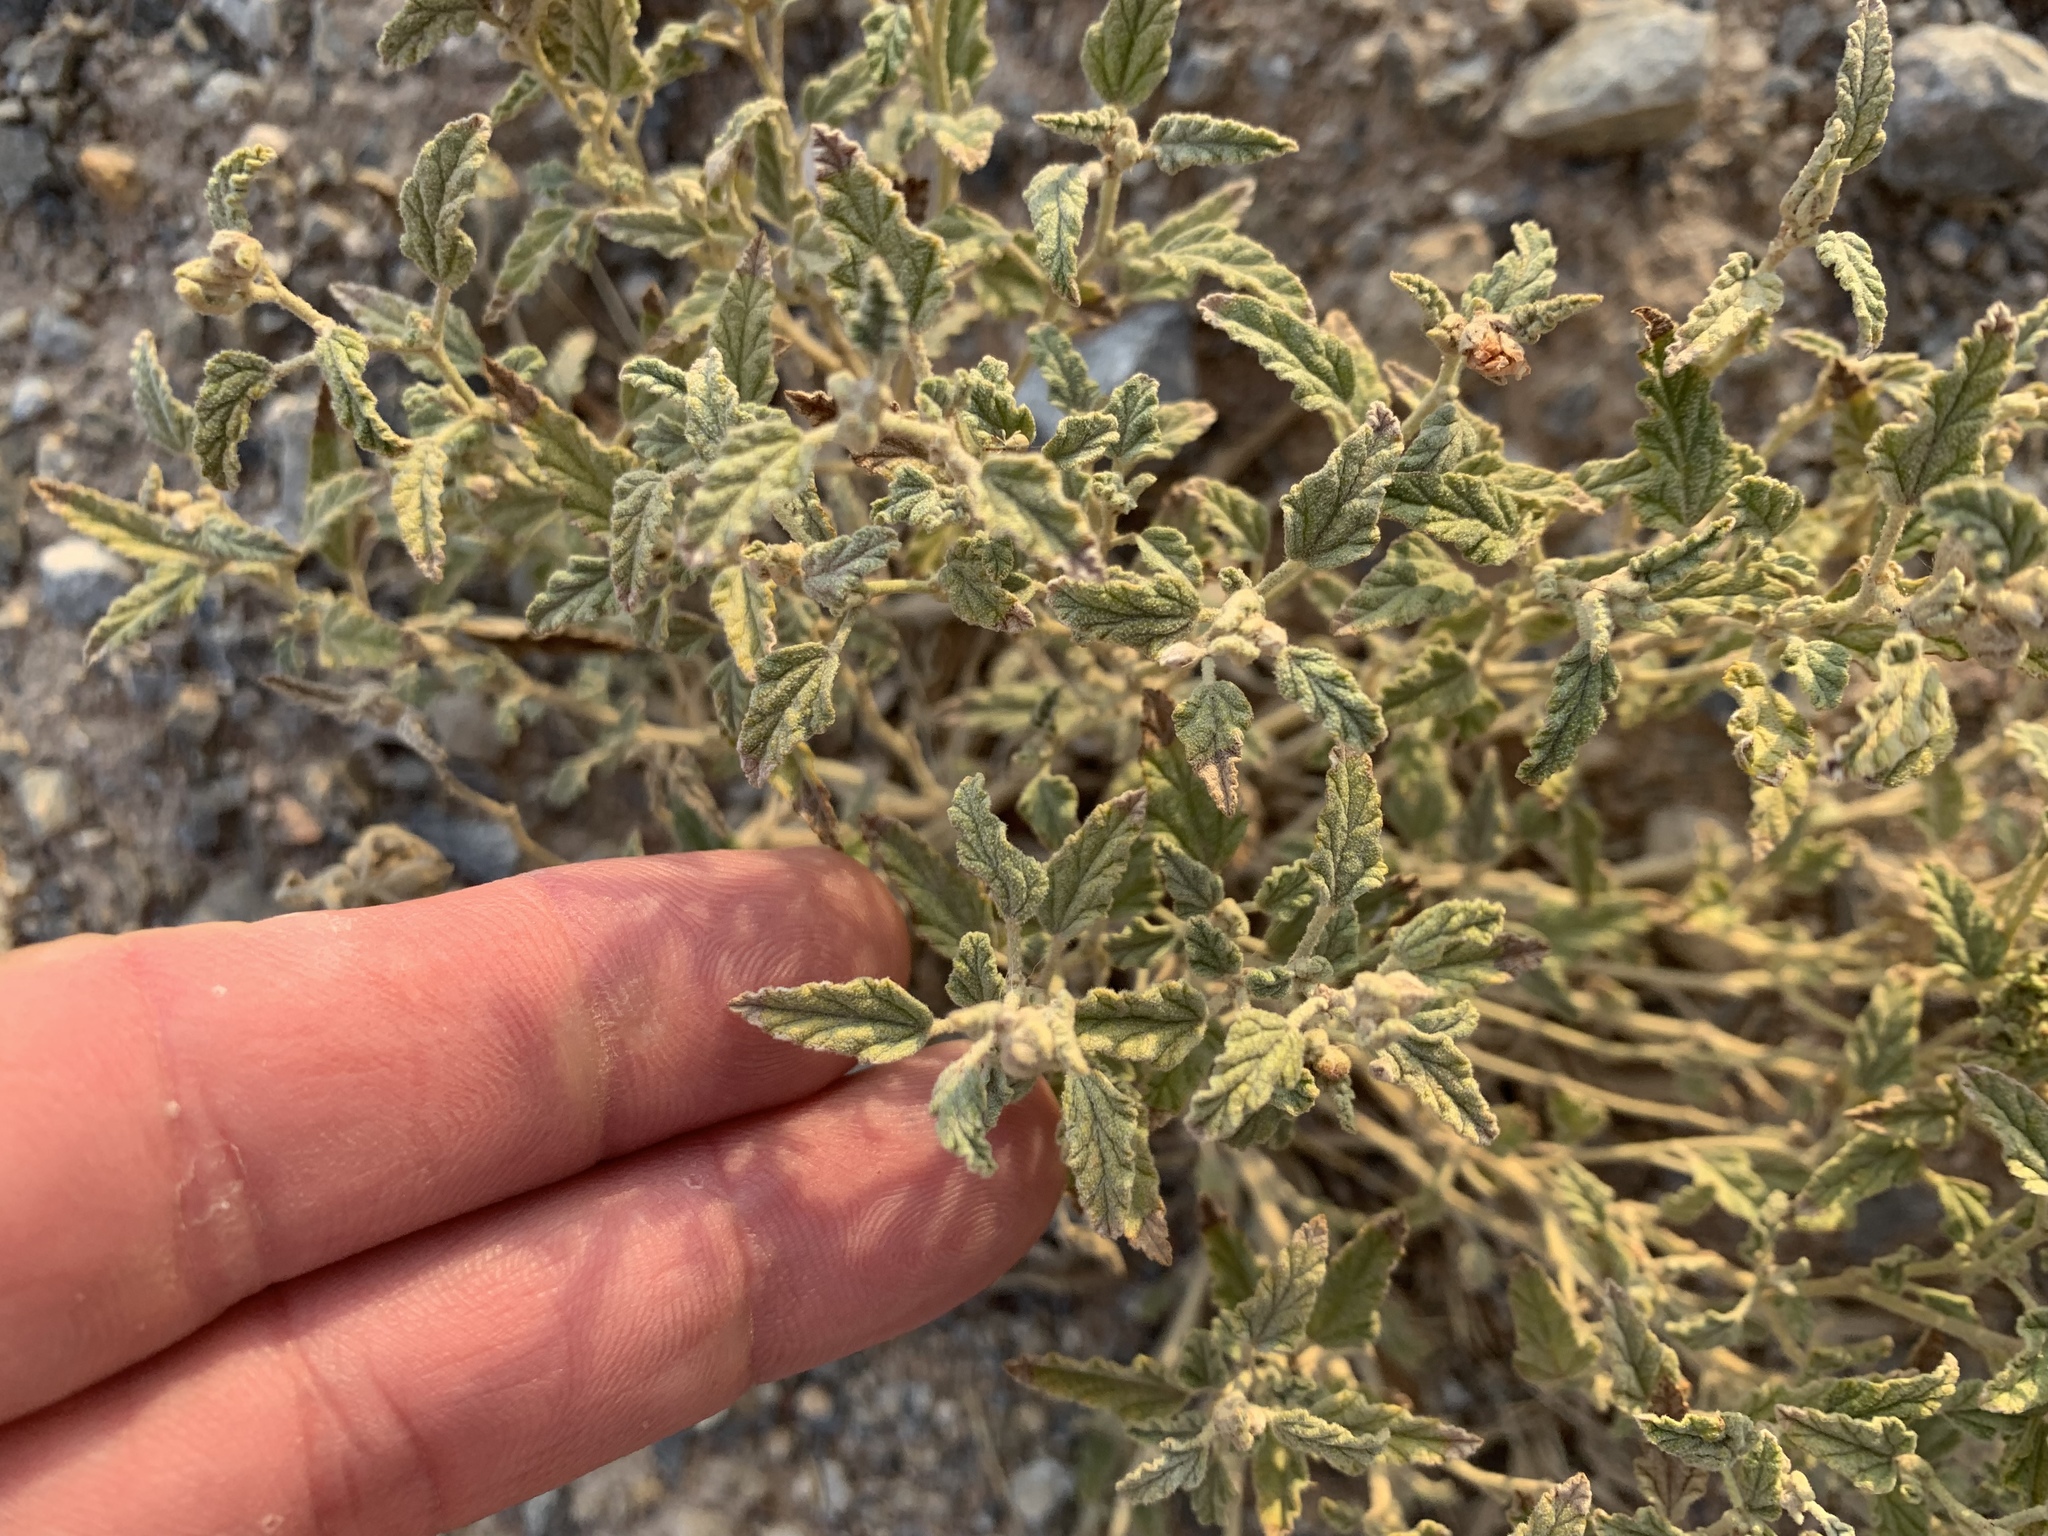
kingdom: Plantae
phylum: Tracheophyta
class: Magnoliopsida
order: Malvales
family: Malvaceae
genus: Sphaeralcea
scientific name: Sphaeralcea angustifolia
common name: Copper globe-mallow
